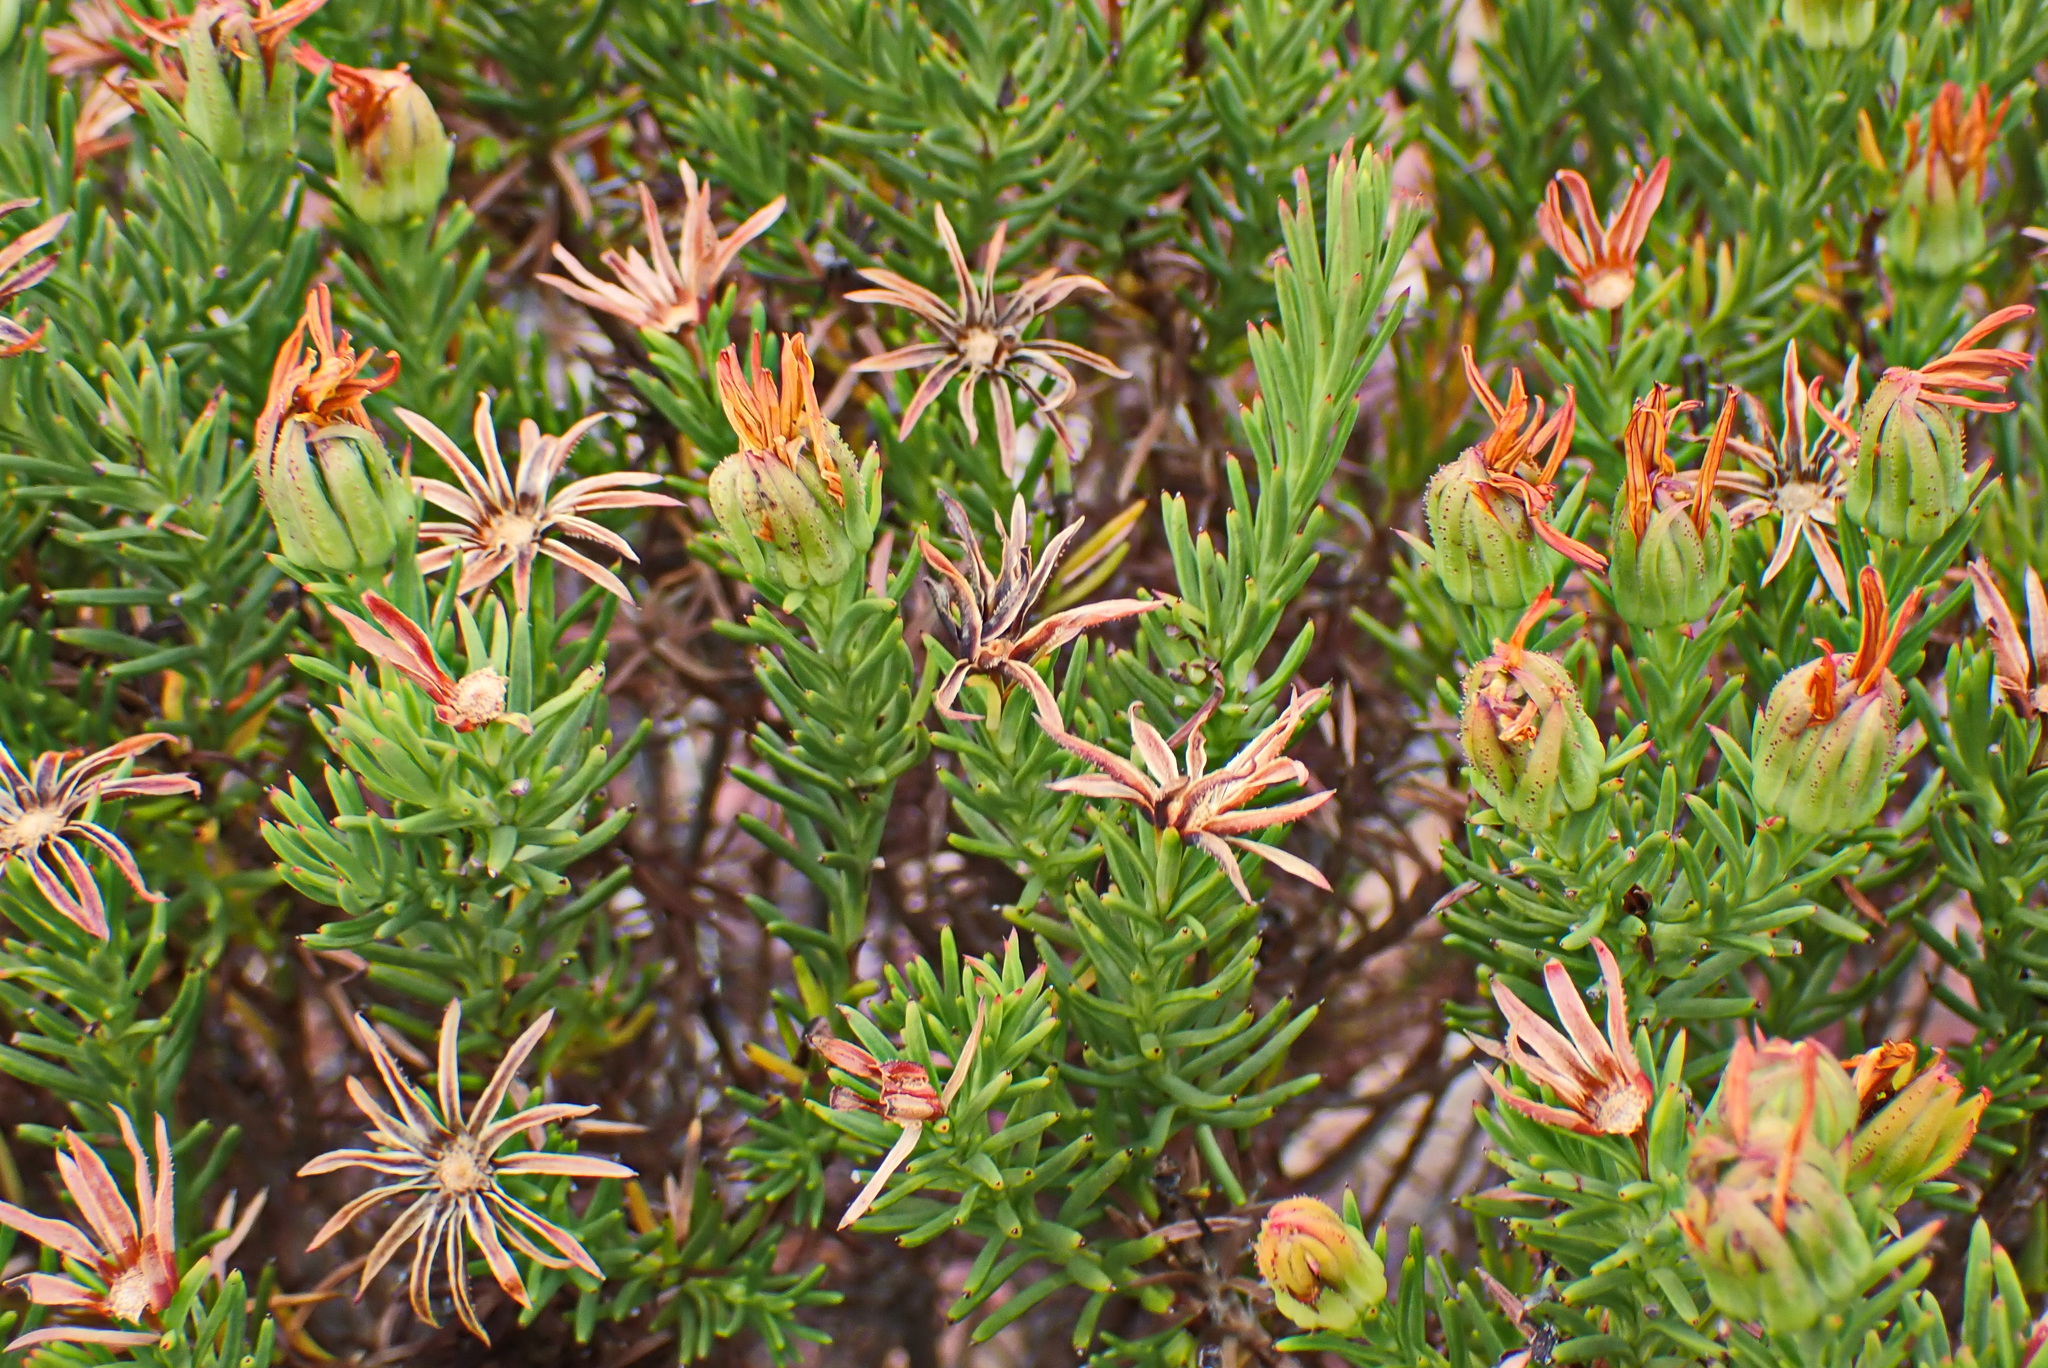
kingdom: Plantae
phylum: Tracheophyta
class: Magnoliopsida
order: Asterales
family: Asteraceae
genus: Gibbaria
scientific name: Gibbaria glabra
